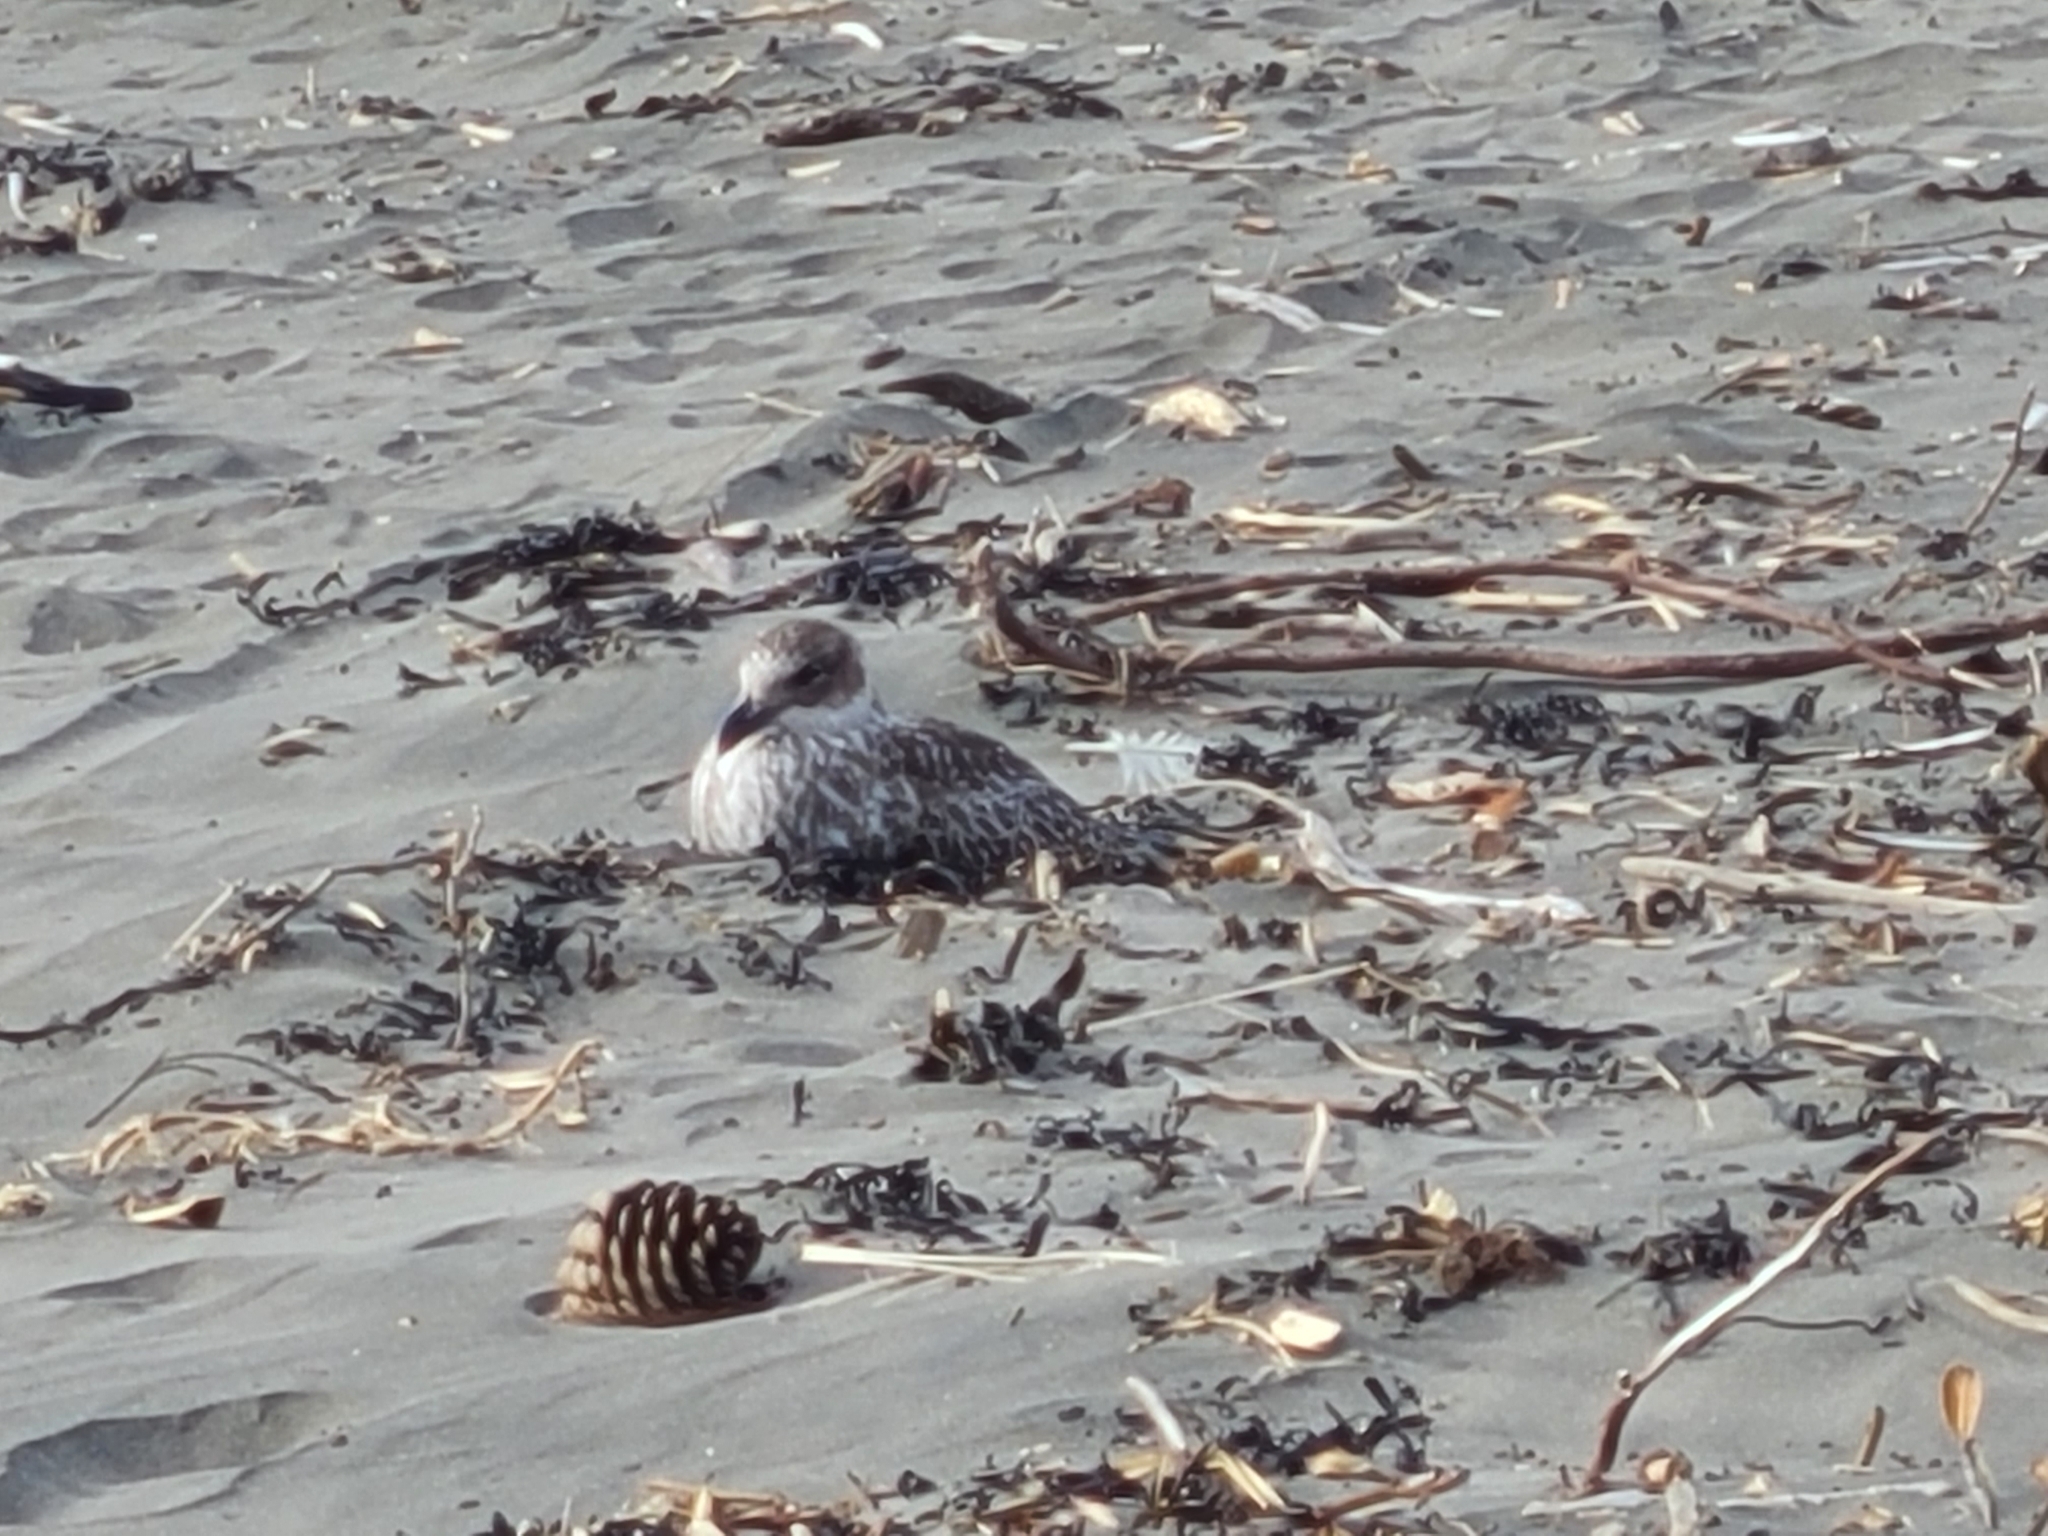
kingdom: Animalia
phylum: Chordata
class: Aves
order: Charadriiformes
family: Laridae
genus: Larus
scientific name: Larus dominicanus
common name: Kelp gull
